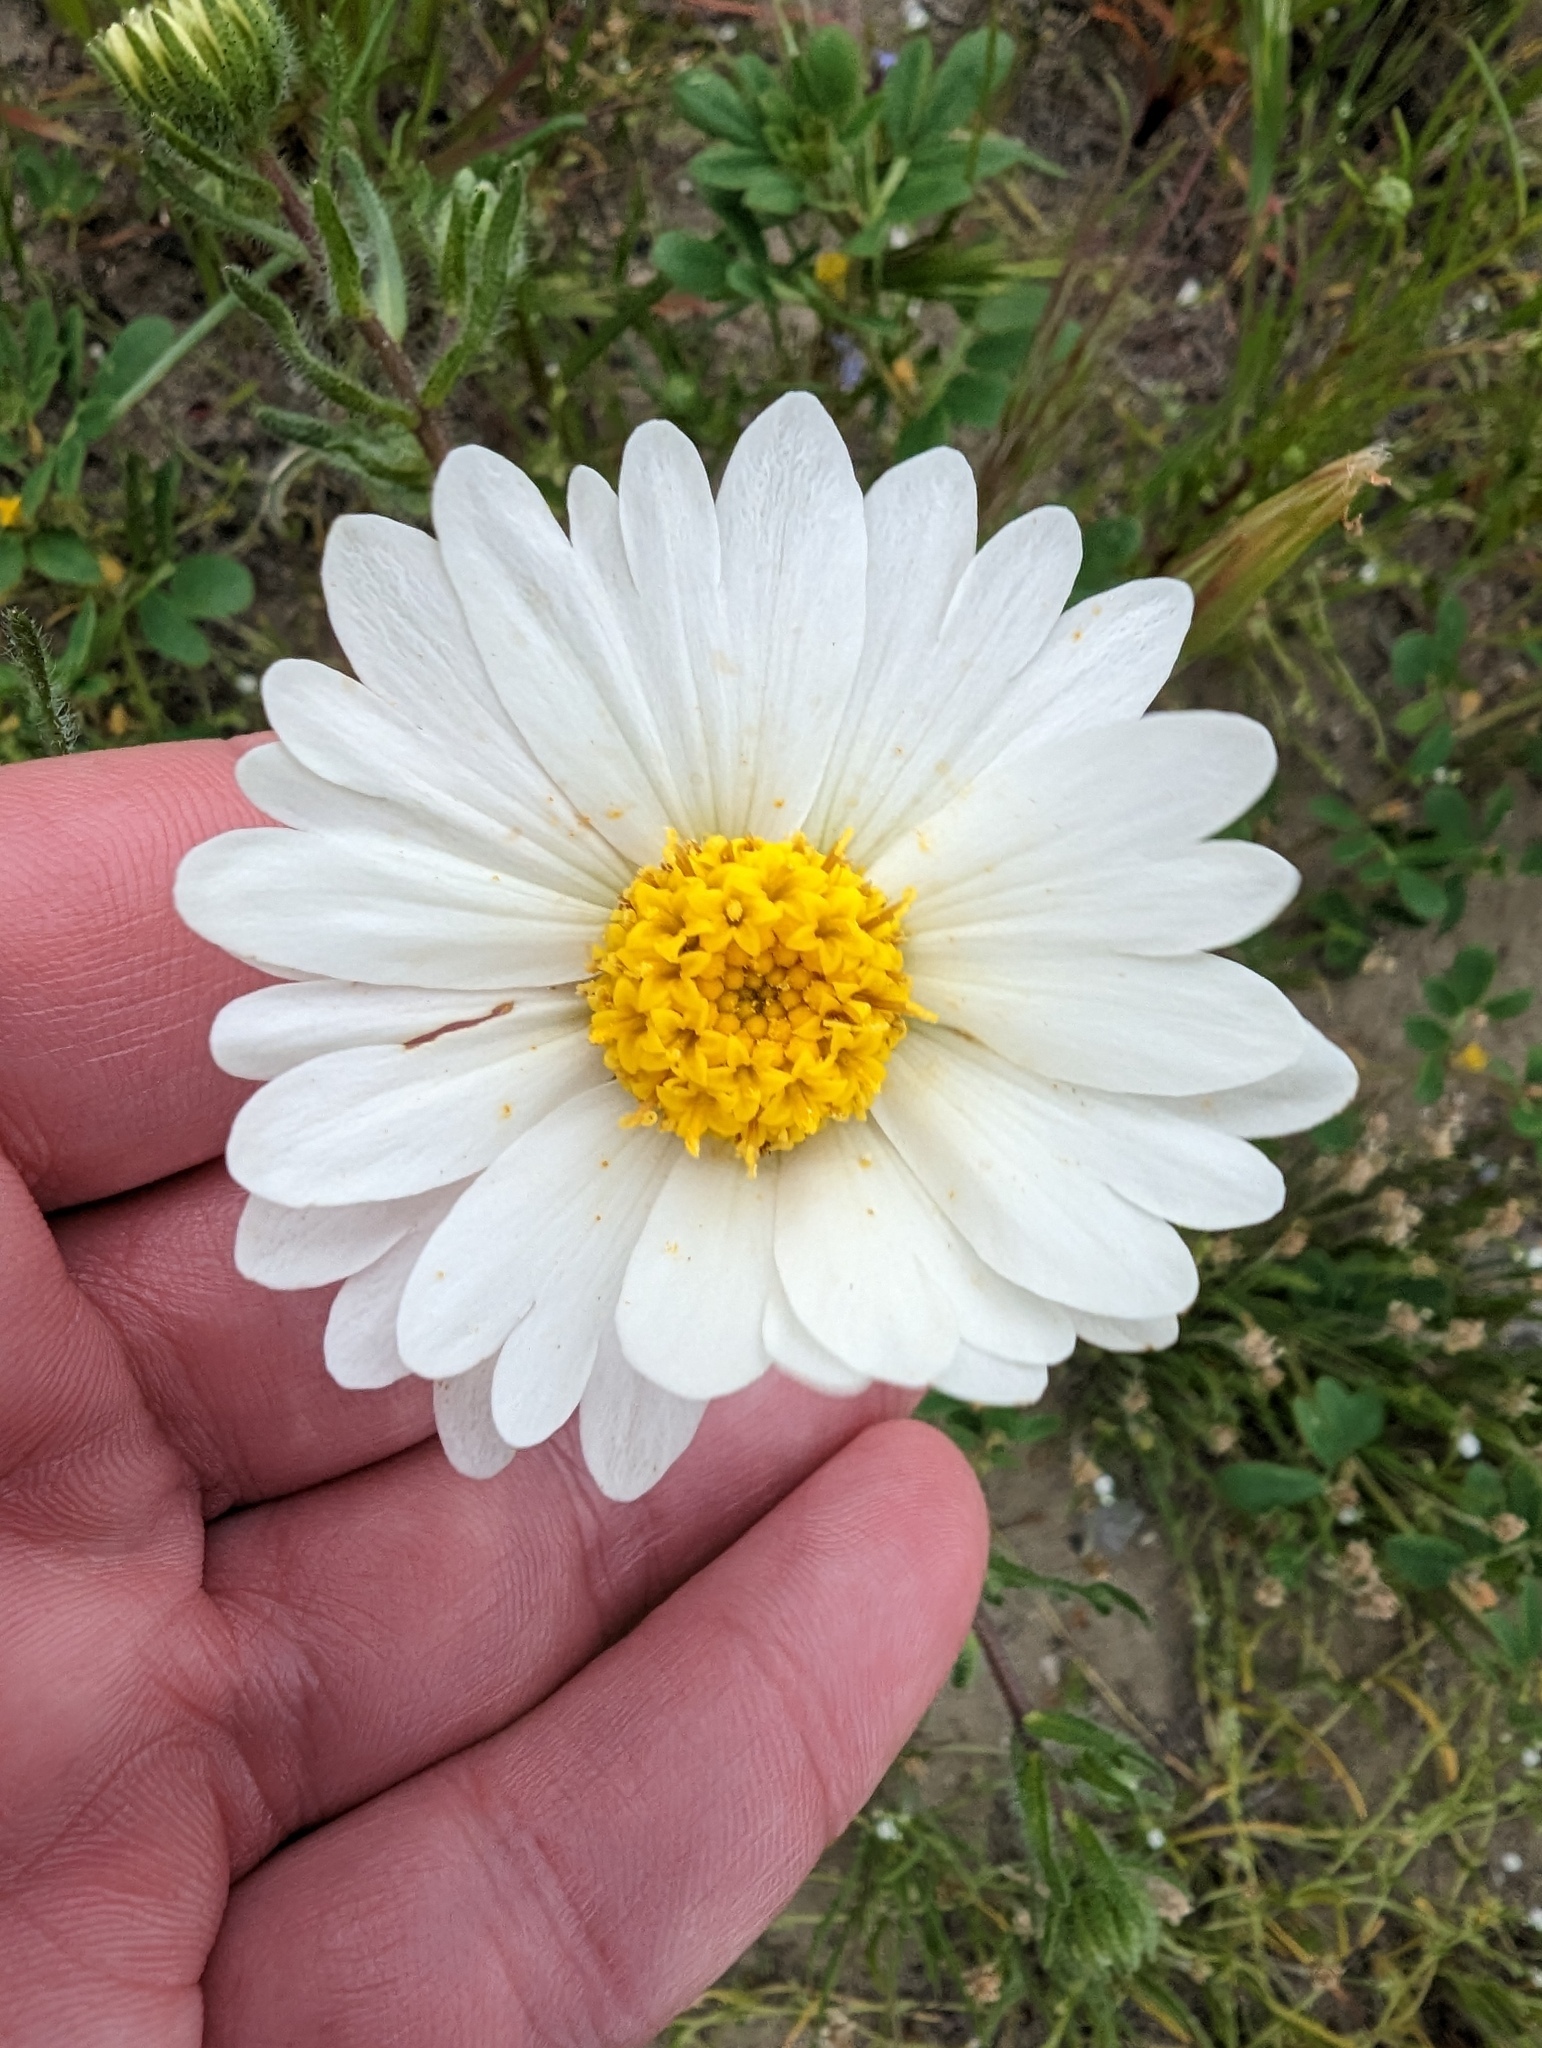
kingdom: Plantae
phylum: Tracheophyta
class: Magnoliopsida
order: Asterales
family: Asteraceae
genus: Layia
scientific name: Layia glandulosa
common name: White layia
